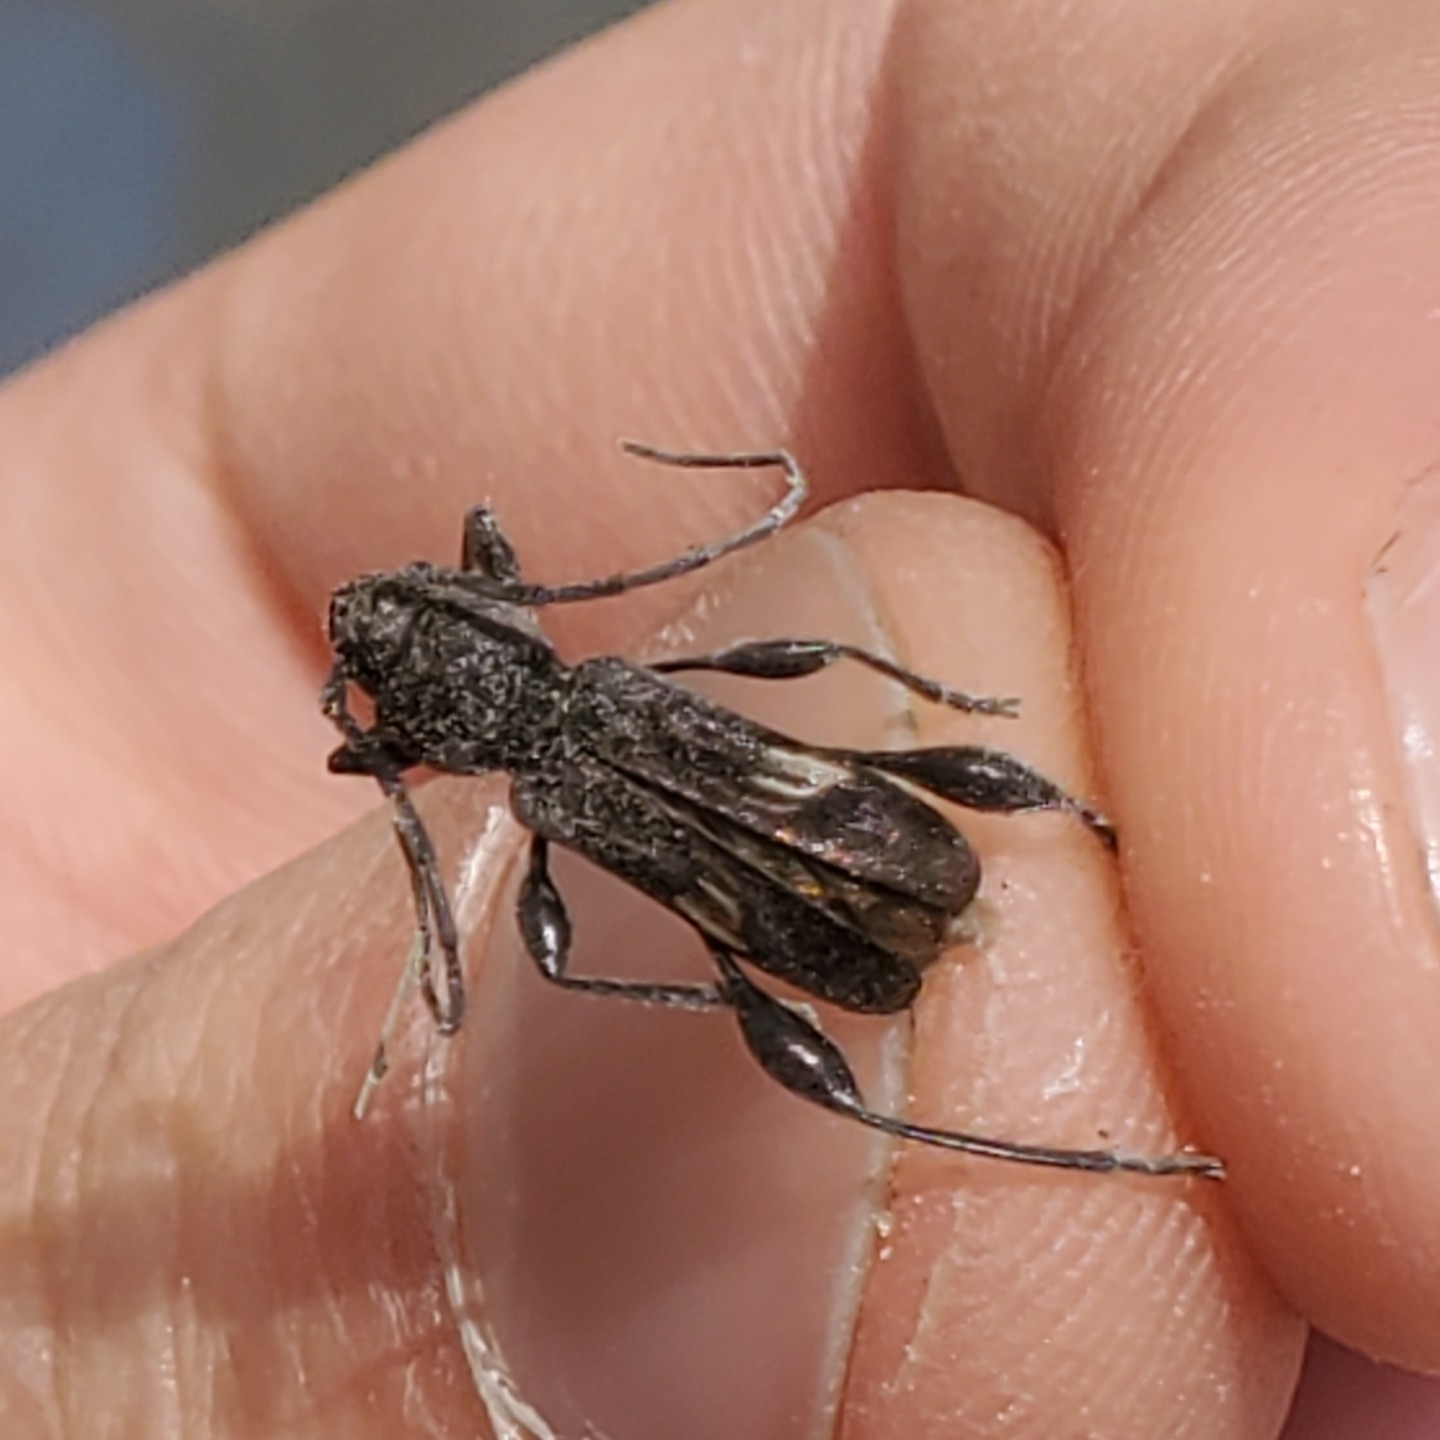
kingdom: Animalia
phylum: Arthropoda
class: Insecta
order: Coleoptera
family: Cerambycidae
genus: Physocnemum
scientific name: Physocnemum brevilineum
